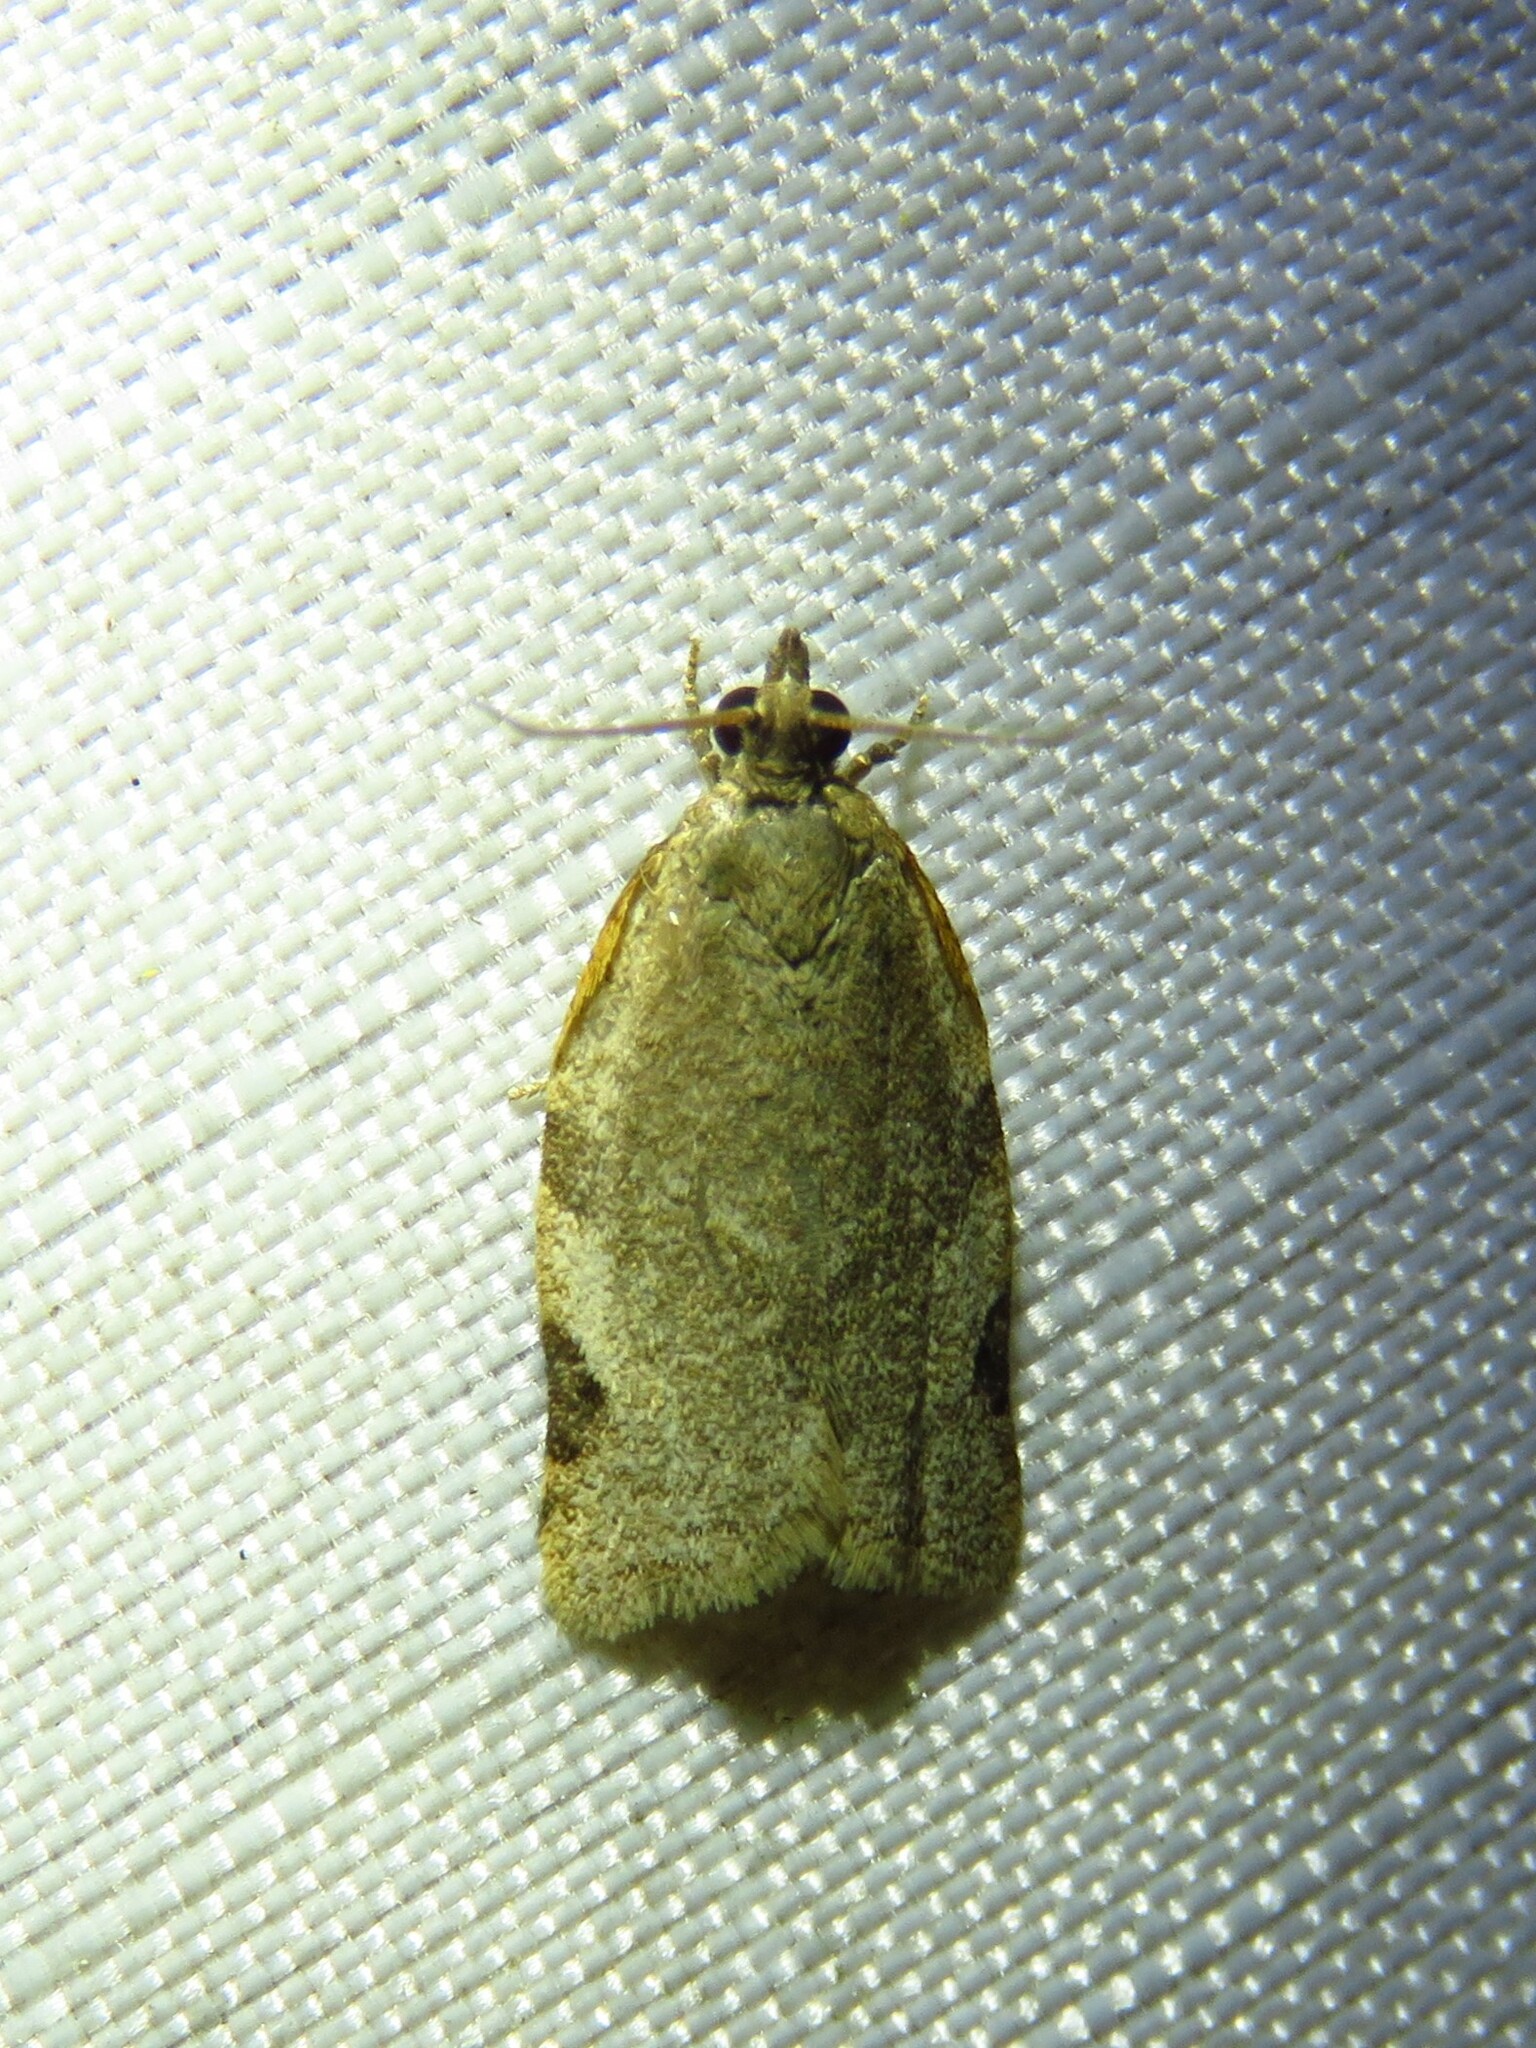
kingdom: Animalia
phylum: Arthropoda
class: Insecta
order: Lepidoptera
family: Tortricidae
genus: Clepsis
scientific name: Clepsis virescana
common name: Greenish apple moth
